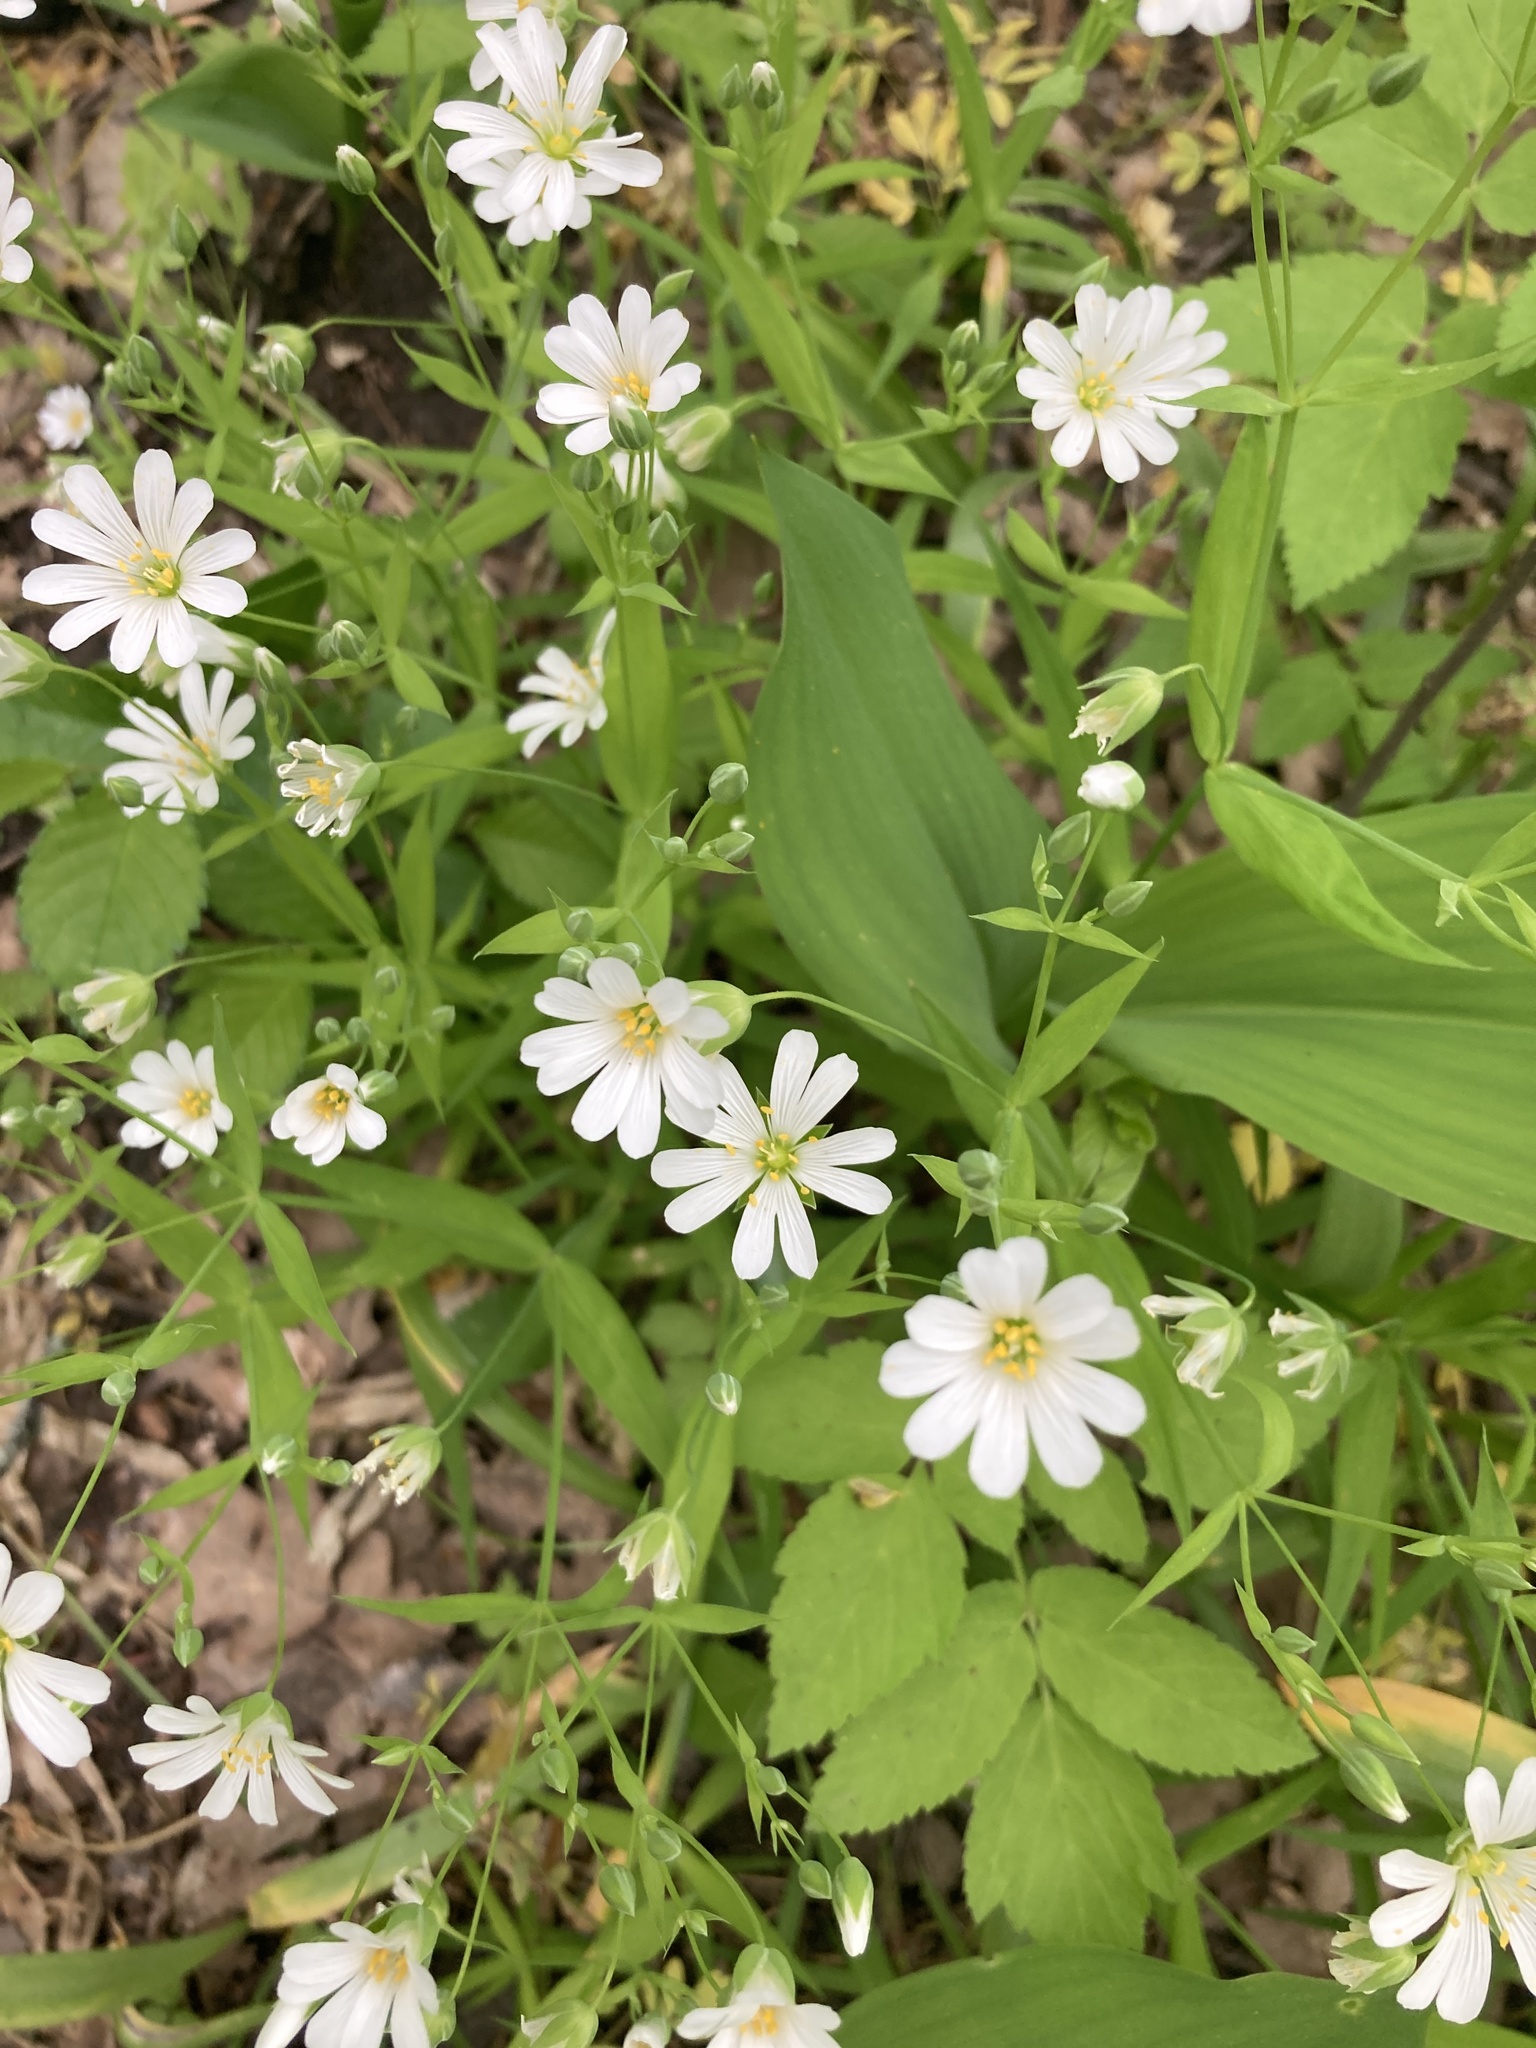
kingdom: Plantae
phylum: Tracheophyta
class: Magnoliopsida
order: Caryophyllales
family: Caryophyllaceae
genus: Rabelera
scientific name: Rabelera holostea
